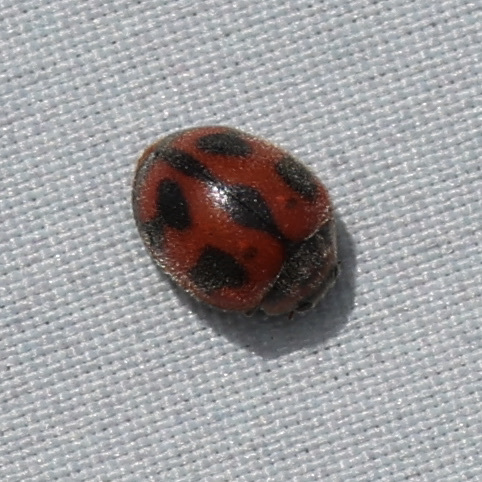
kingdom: Animalia
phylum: Arthropoda
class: Insecta
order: Coleoptera
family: Coccinellidae
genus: Novius
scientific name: Novius cardinalis
